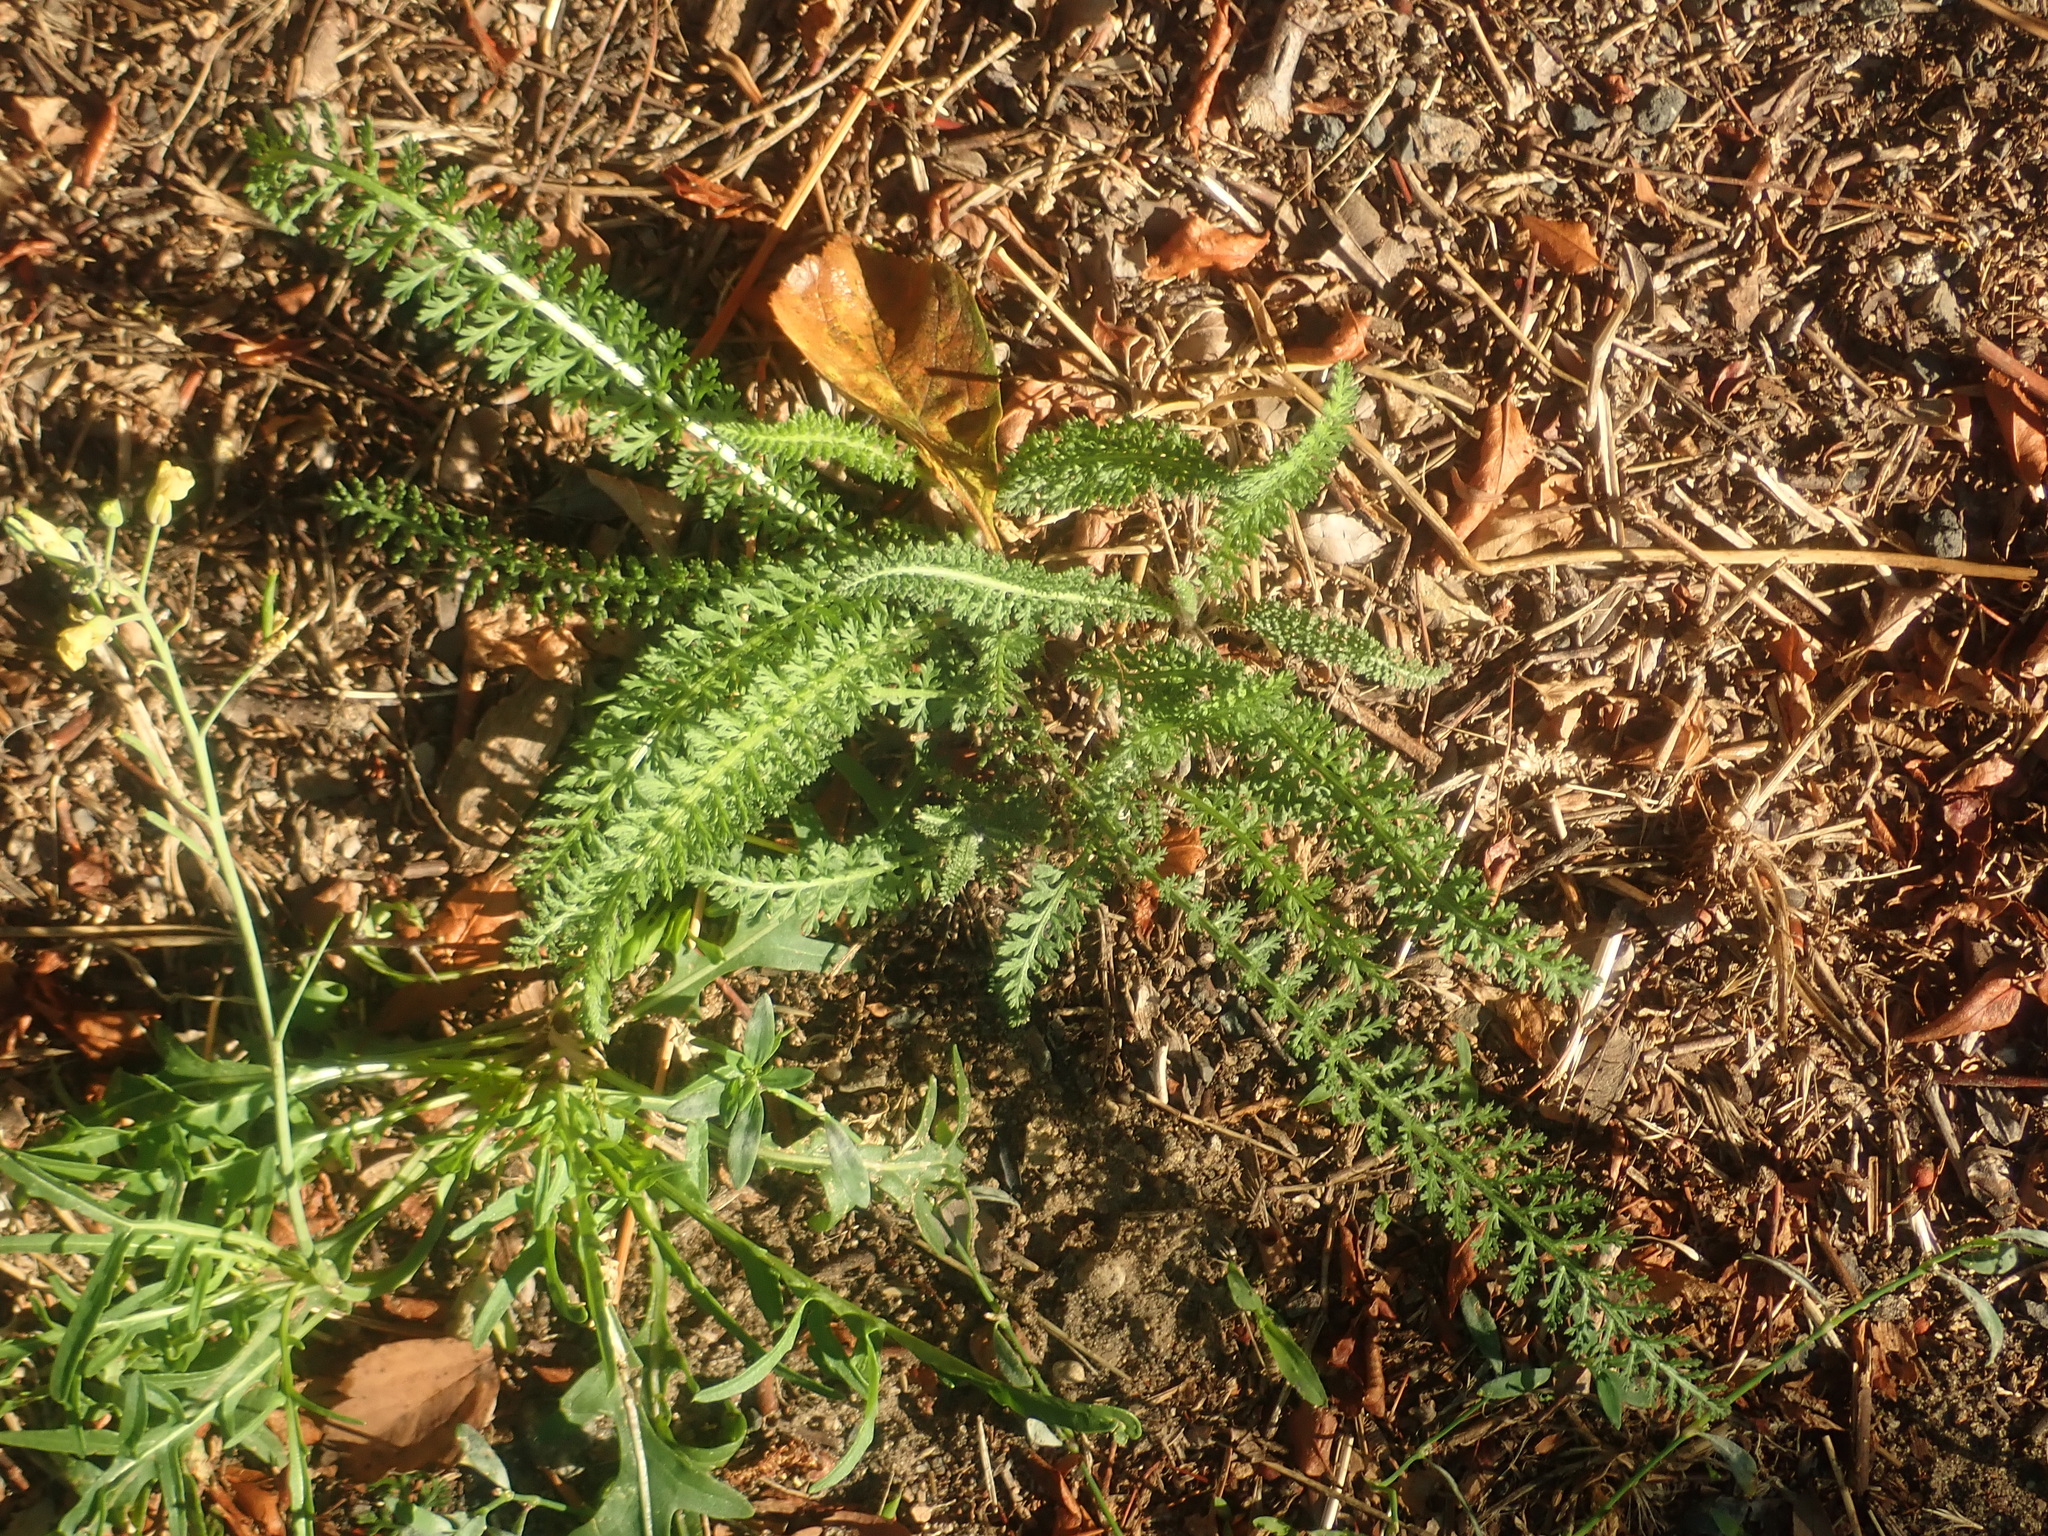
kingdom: Plantae
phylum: Tracheophyta
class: Magnoliopsida
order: Asterales
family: Asteraceae
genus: Achillea
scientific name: Achillea millefolium
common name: Yarrow
